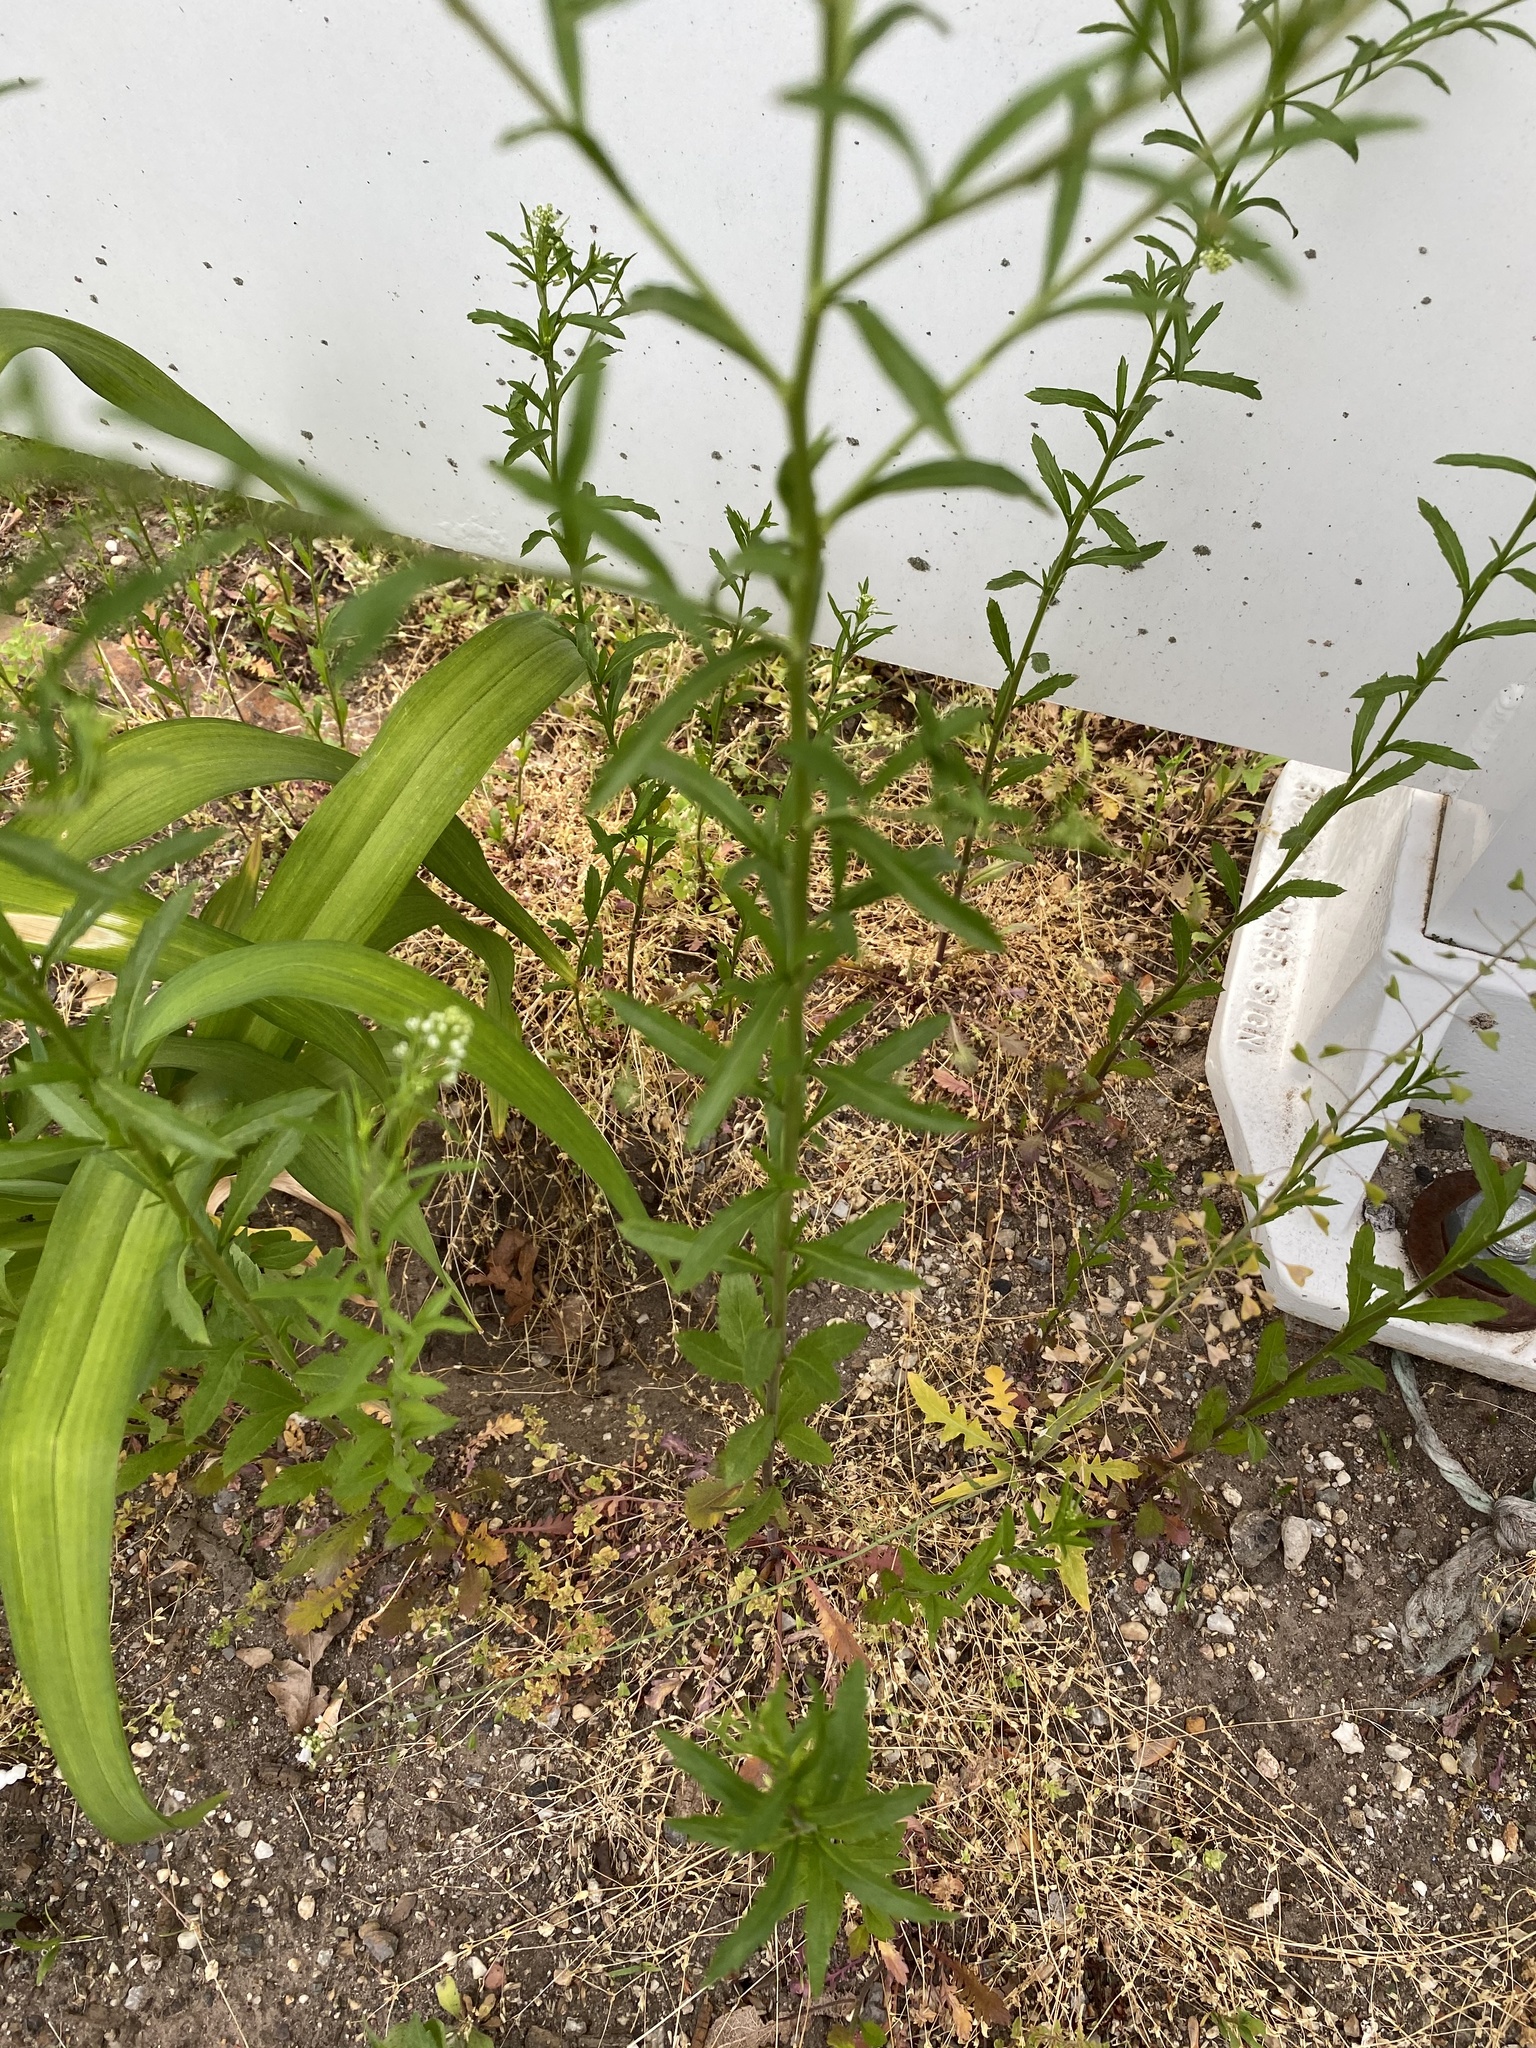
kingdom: Plantae
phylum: Tracheophyta
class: Magnoliopsida
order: Brassicales
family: Brassicaceae
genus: Lepidium
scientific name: Lepidium virginicum
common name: Least pepperwort
